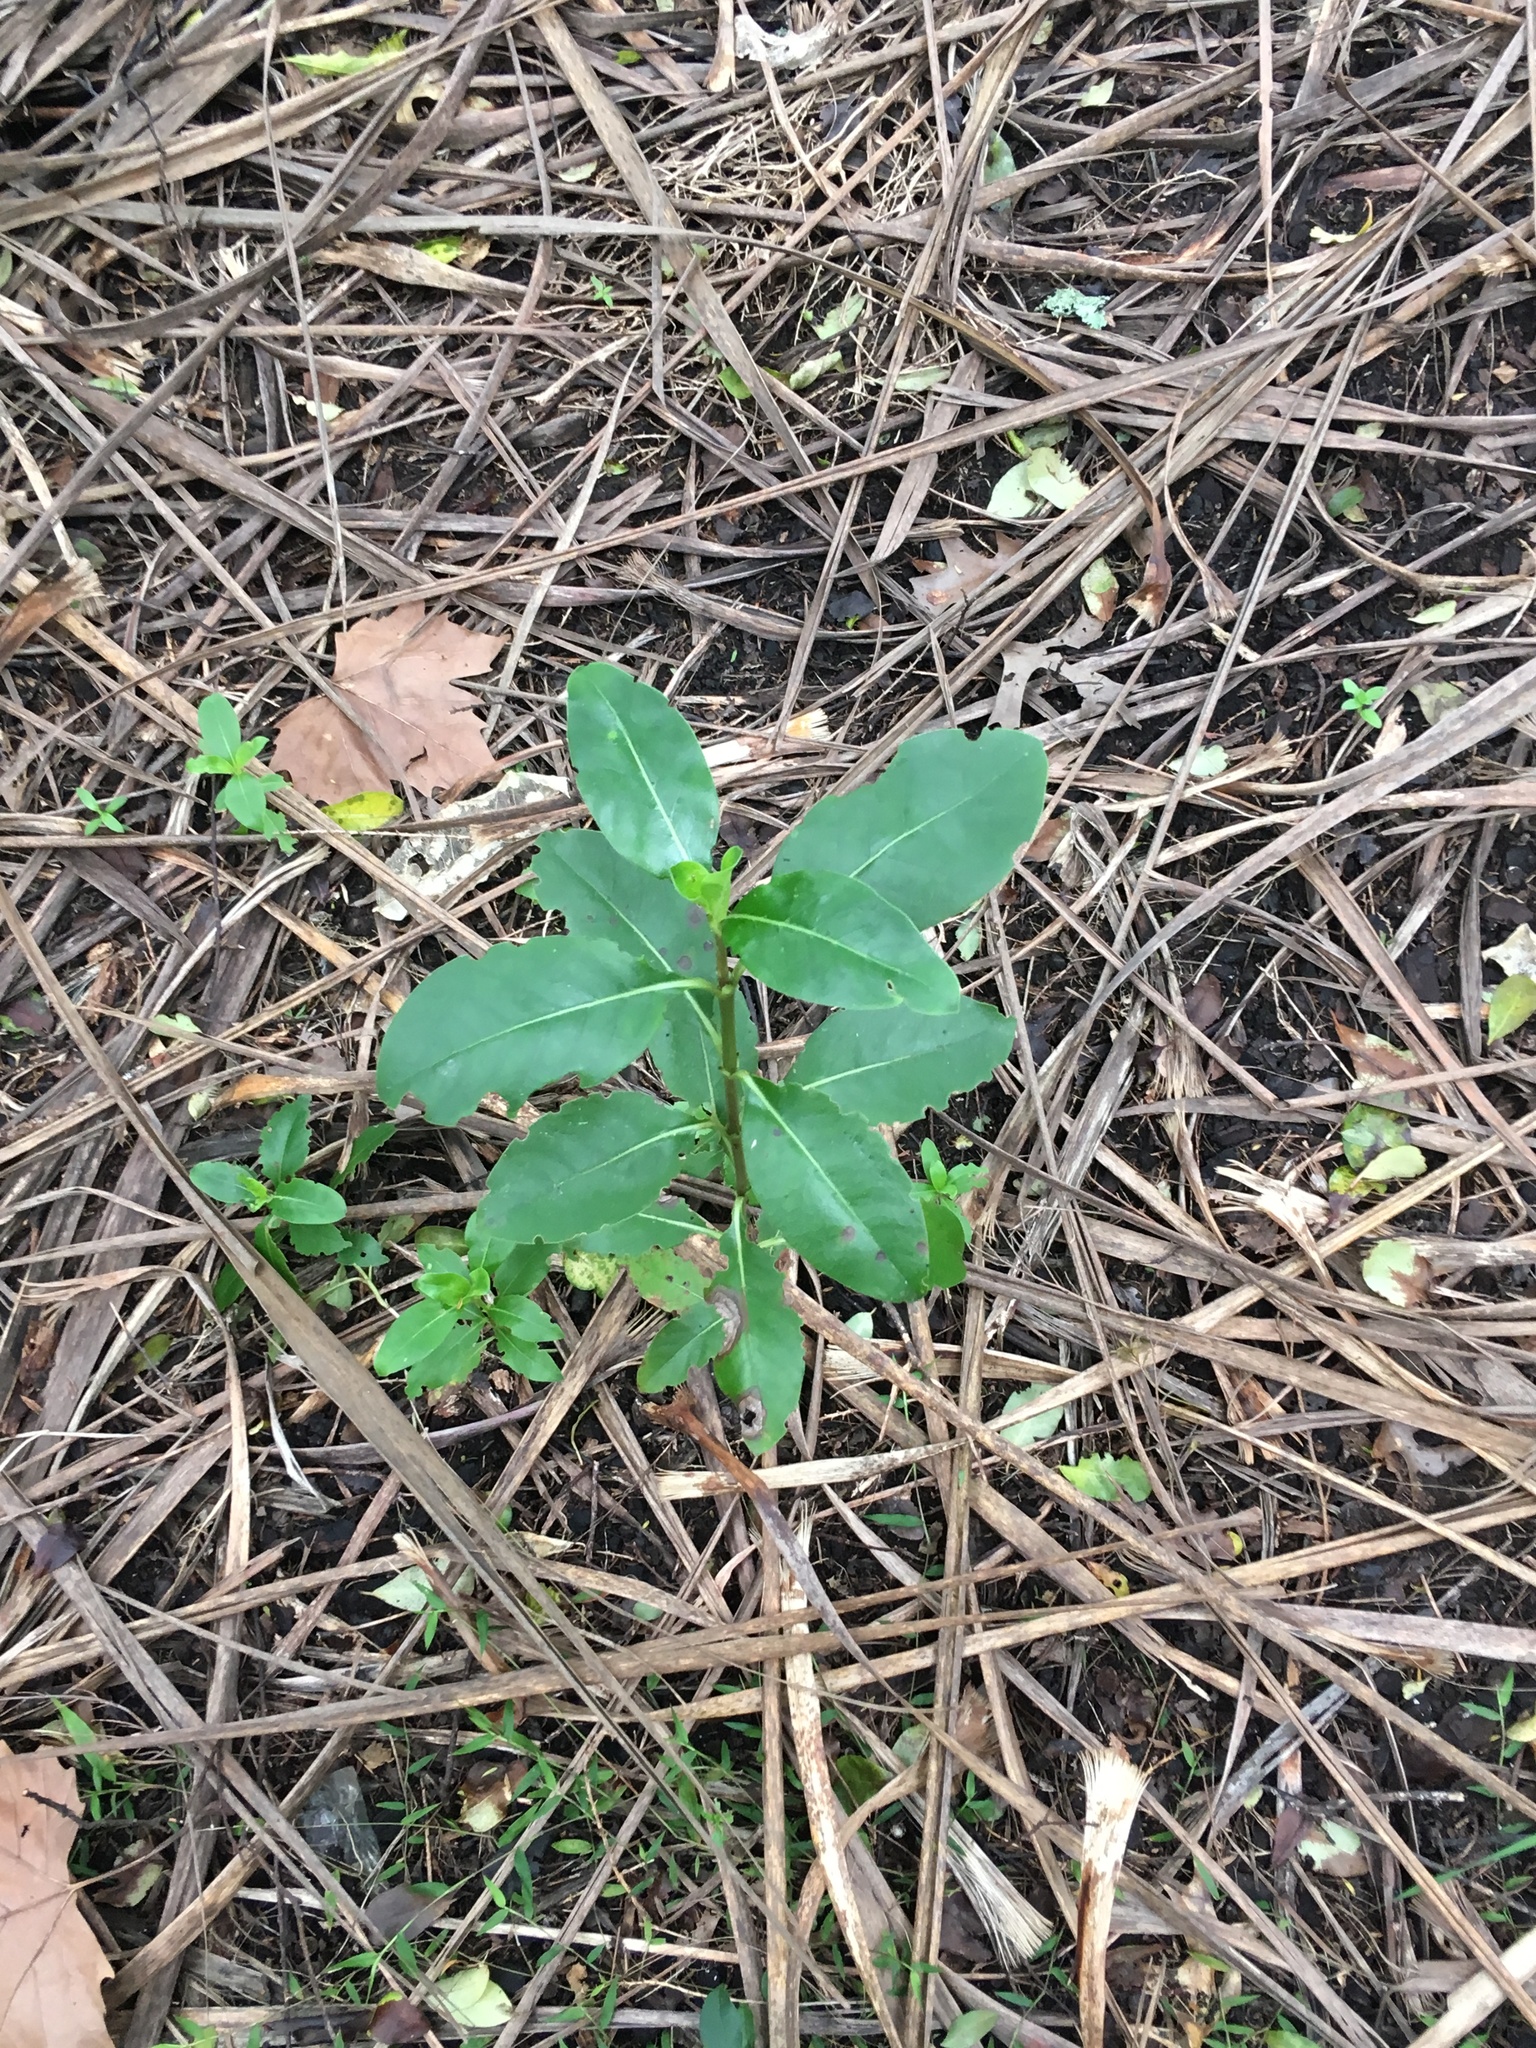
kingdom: Plantae
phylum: Tracheophyta
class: Magnoliopsida
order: Gentianales
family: Rubiaceae
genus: Coprosma
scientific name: Coprosma robusta
